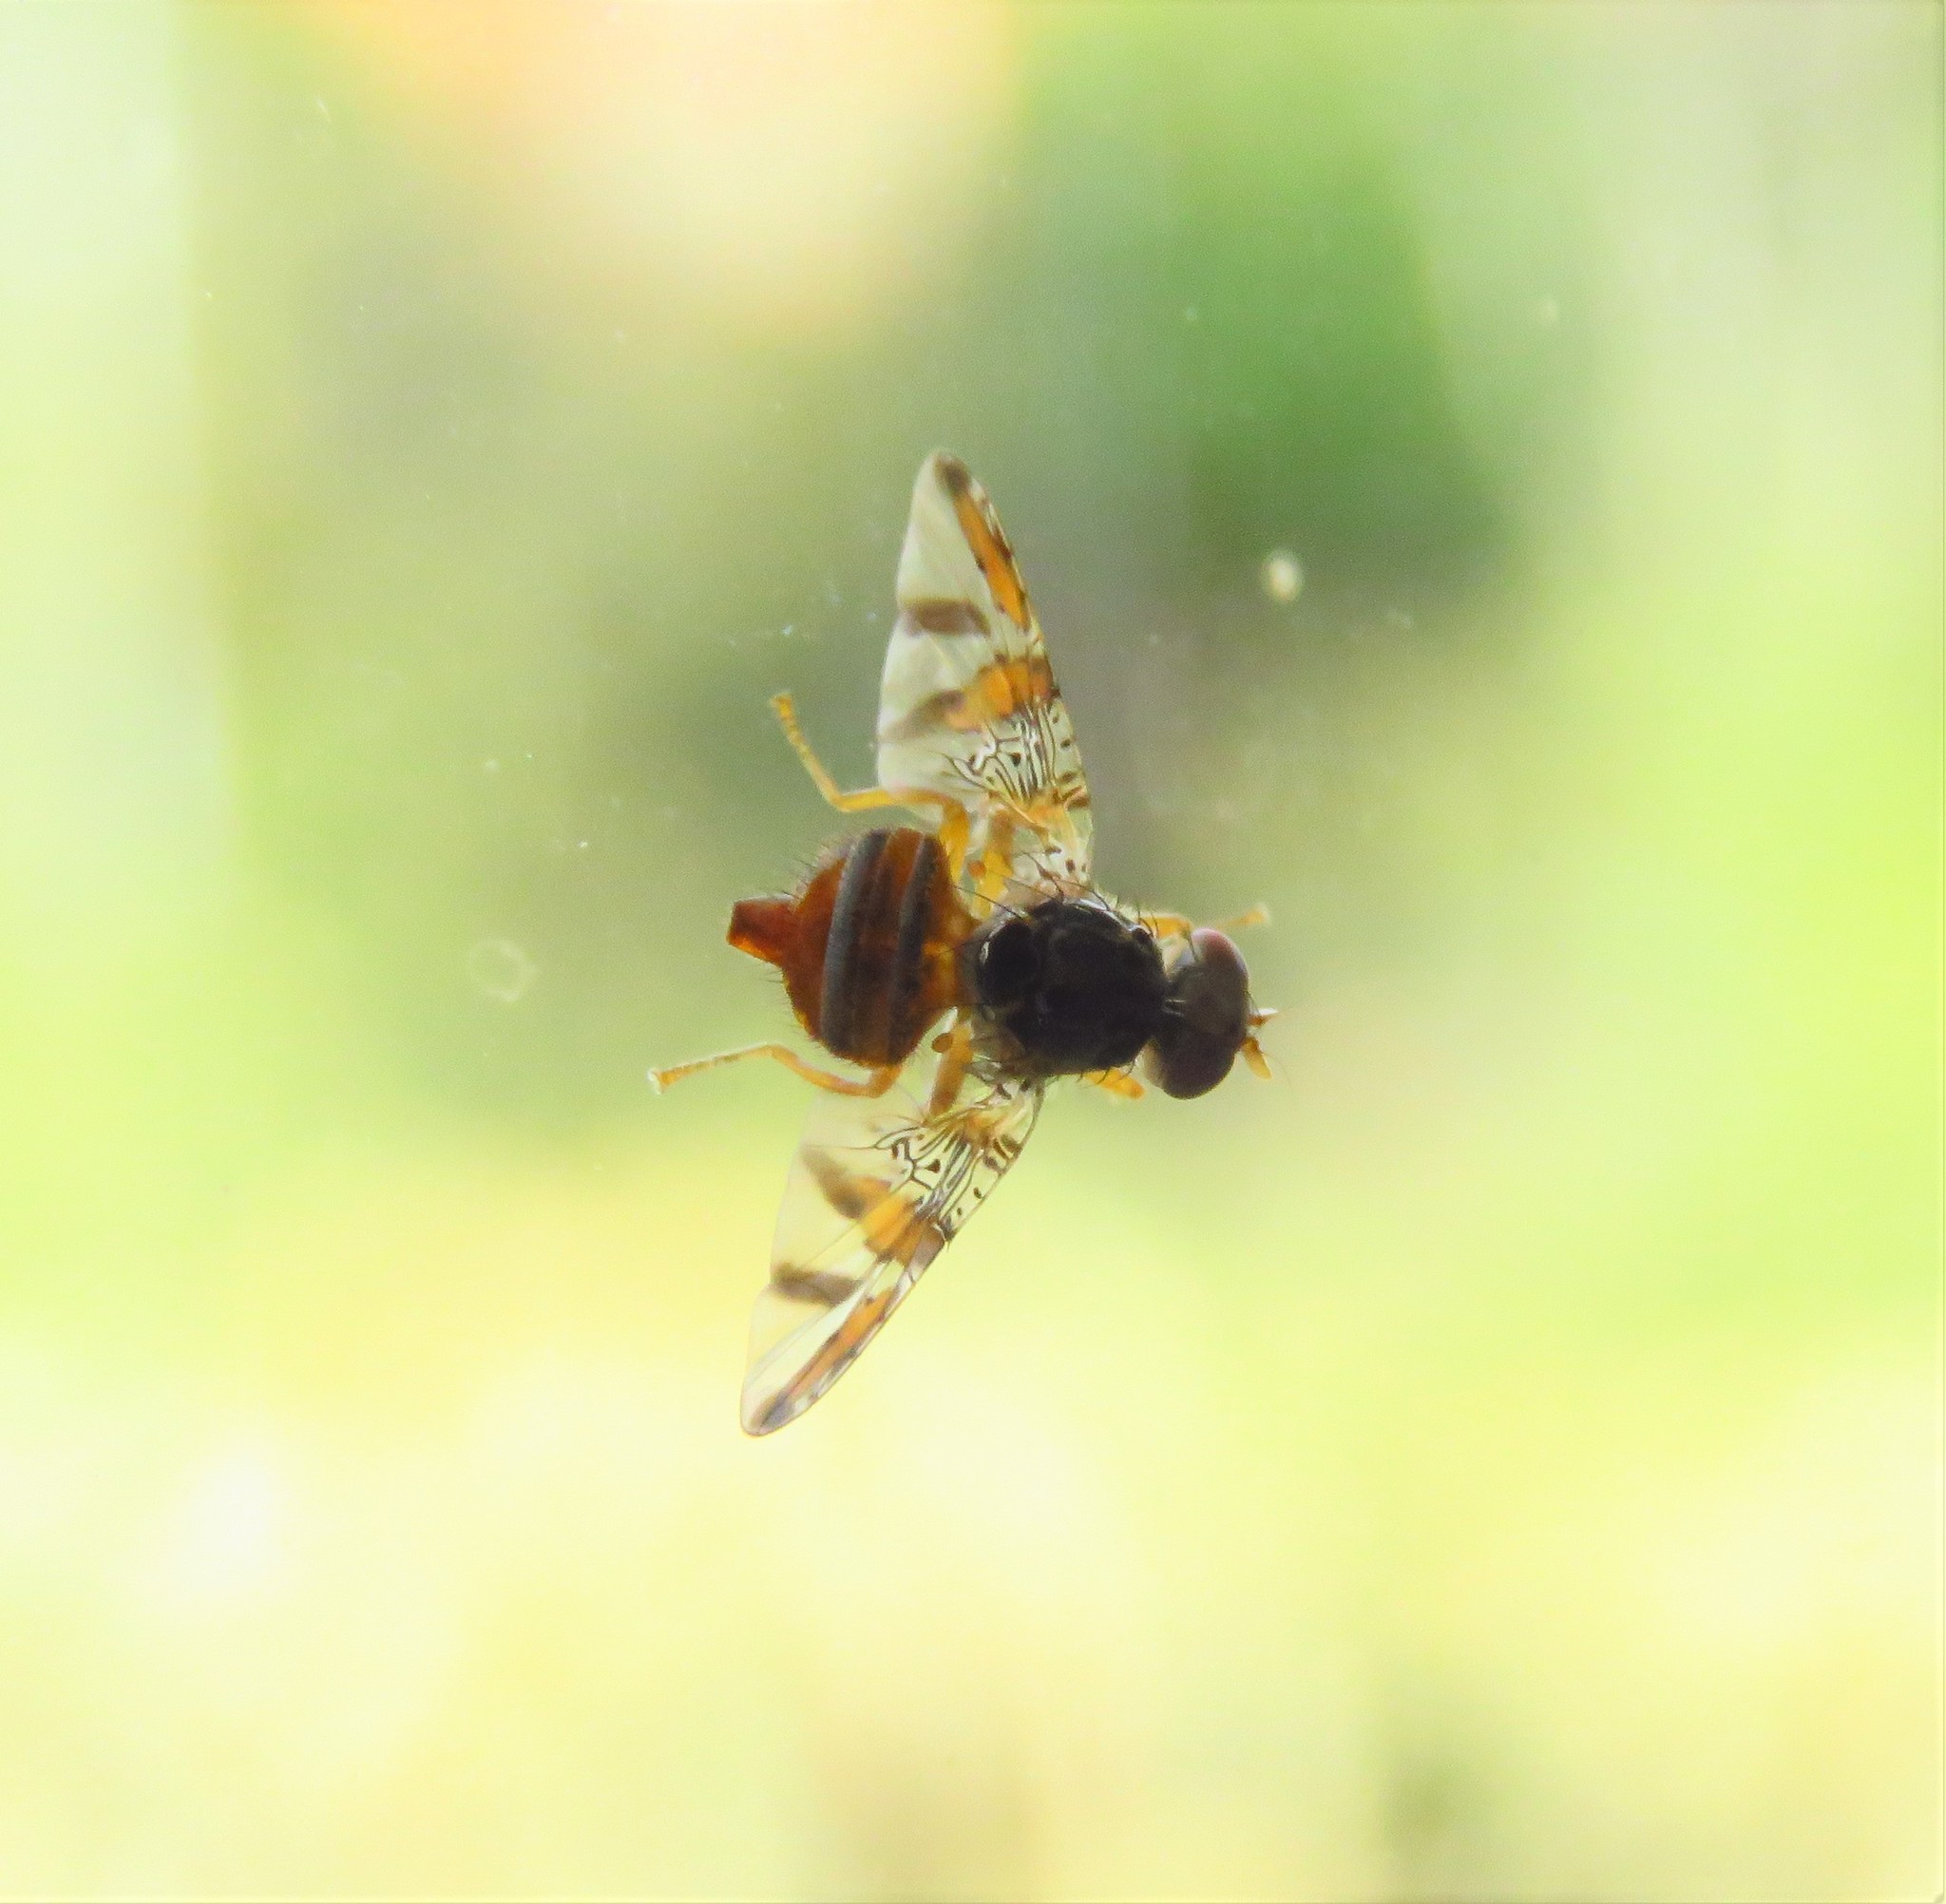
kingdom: Animalia
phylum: Arthropoda
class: Insecta
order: Diptera
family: Tephritidae
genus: Ceratitis
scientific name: Ceratitis capitata
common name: Mediterranean fruit fly
